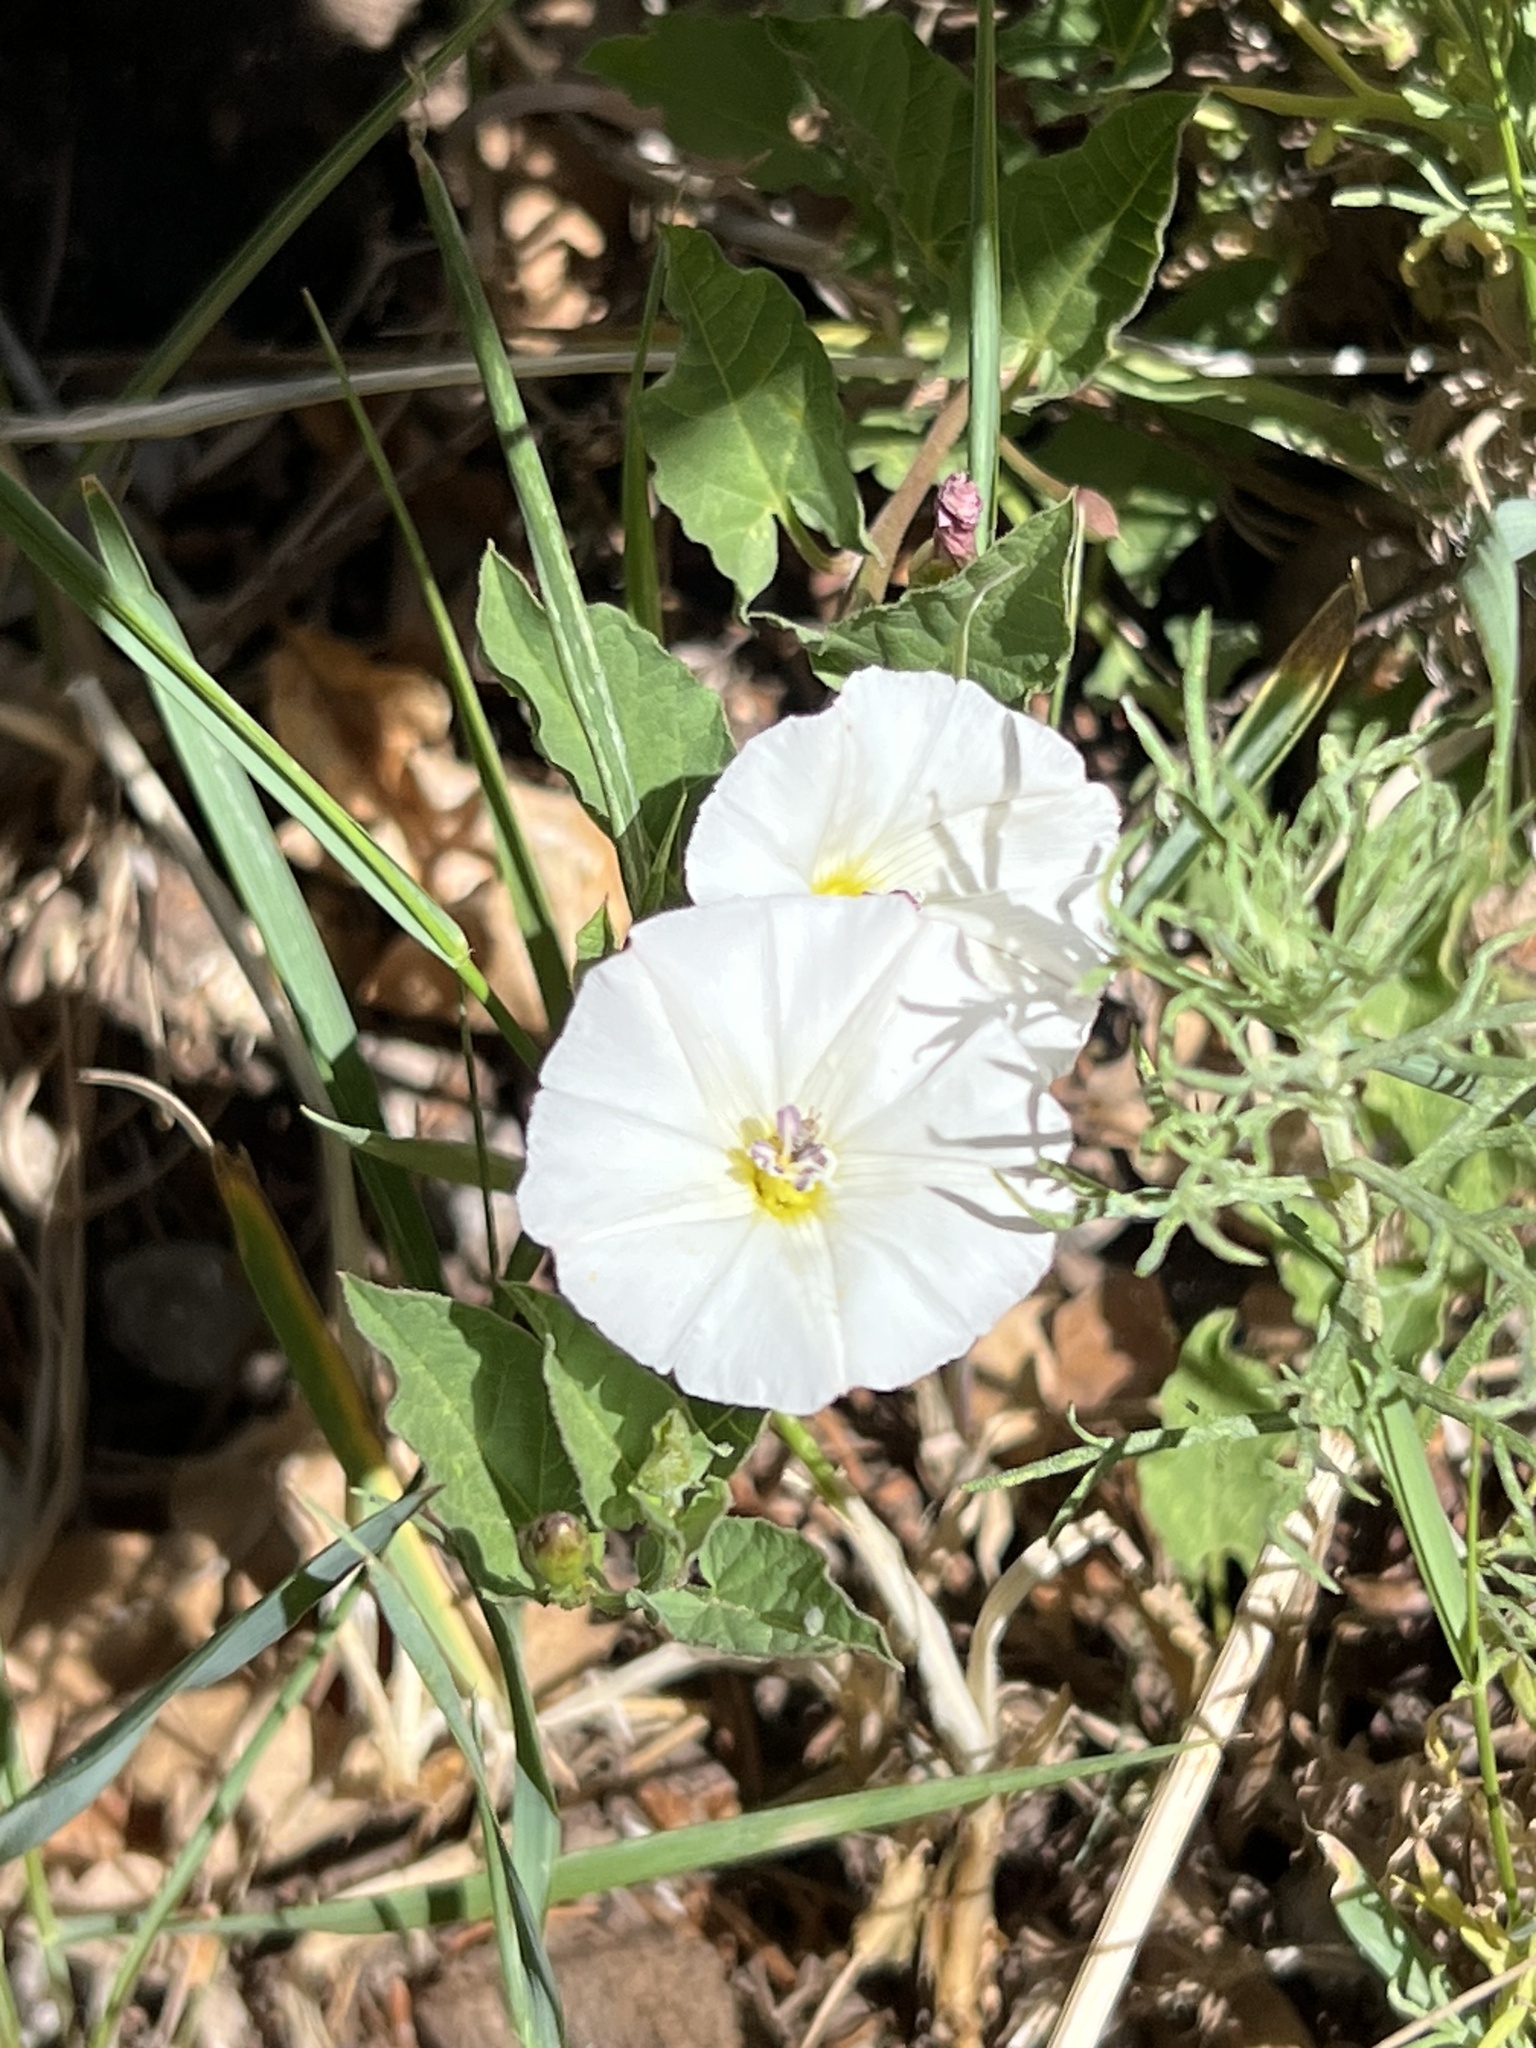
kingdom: Plantae
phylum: Tracheophyta
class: Magnoliopsida
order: Solanales
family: Convolvulaceae
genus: Convolvulus
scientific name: Convolvulus arvensis
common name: Field bindweed
